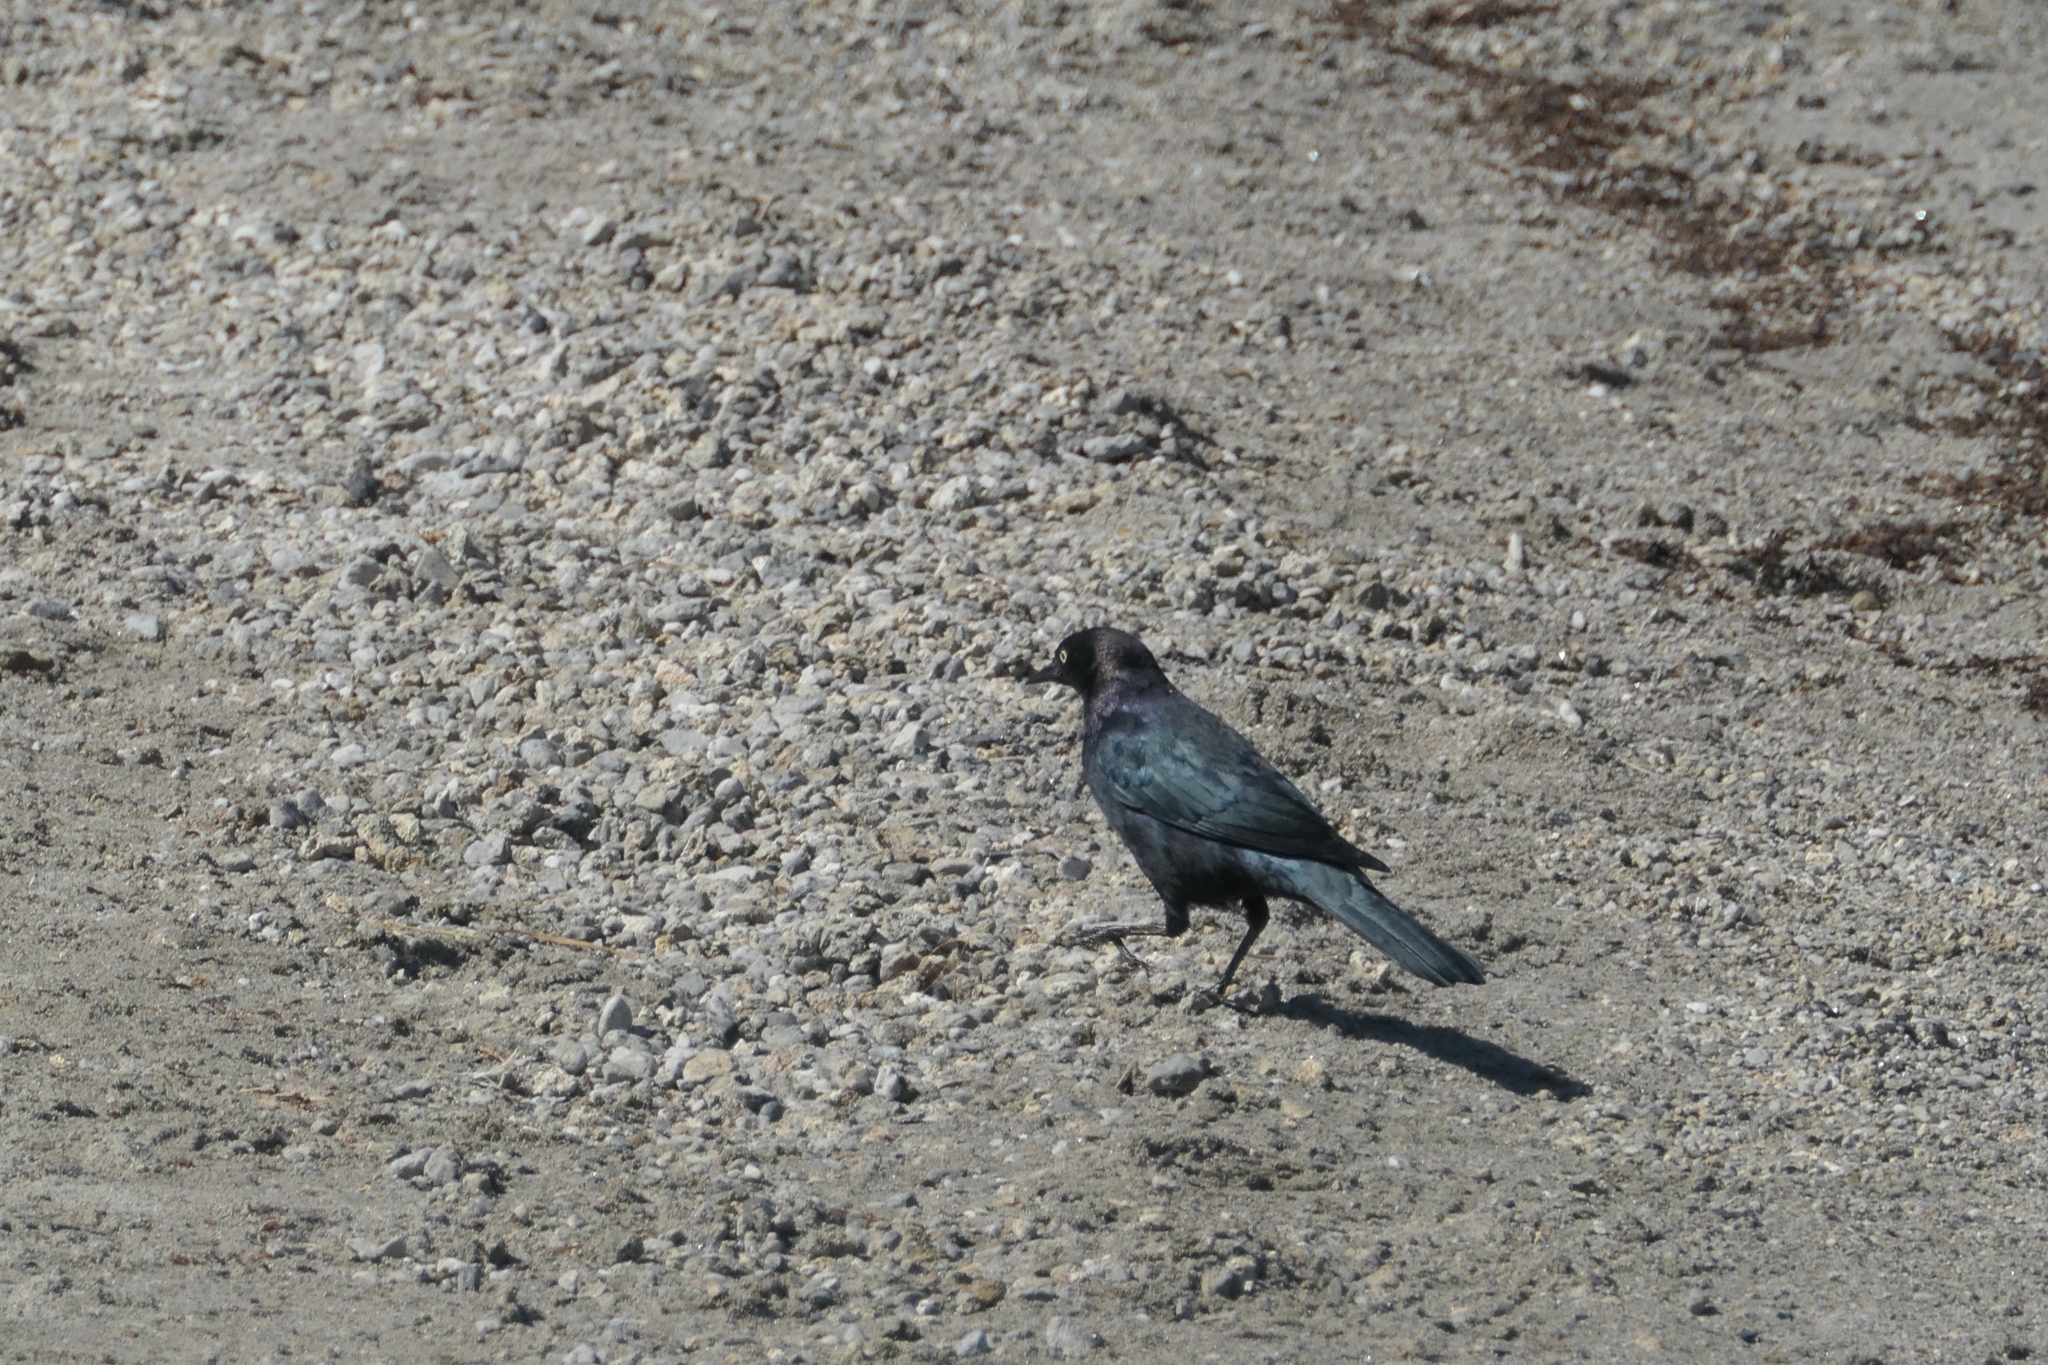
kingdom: Animalia
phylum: Chordata
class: Aves
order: Passeriformes
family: Icteridae
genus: Euphagus
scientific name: Euphagus cyanocephalus
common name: Brewer's blackbird
